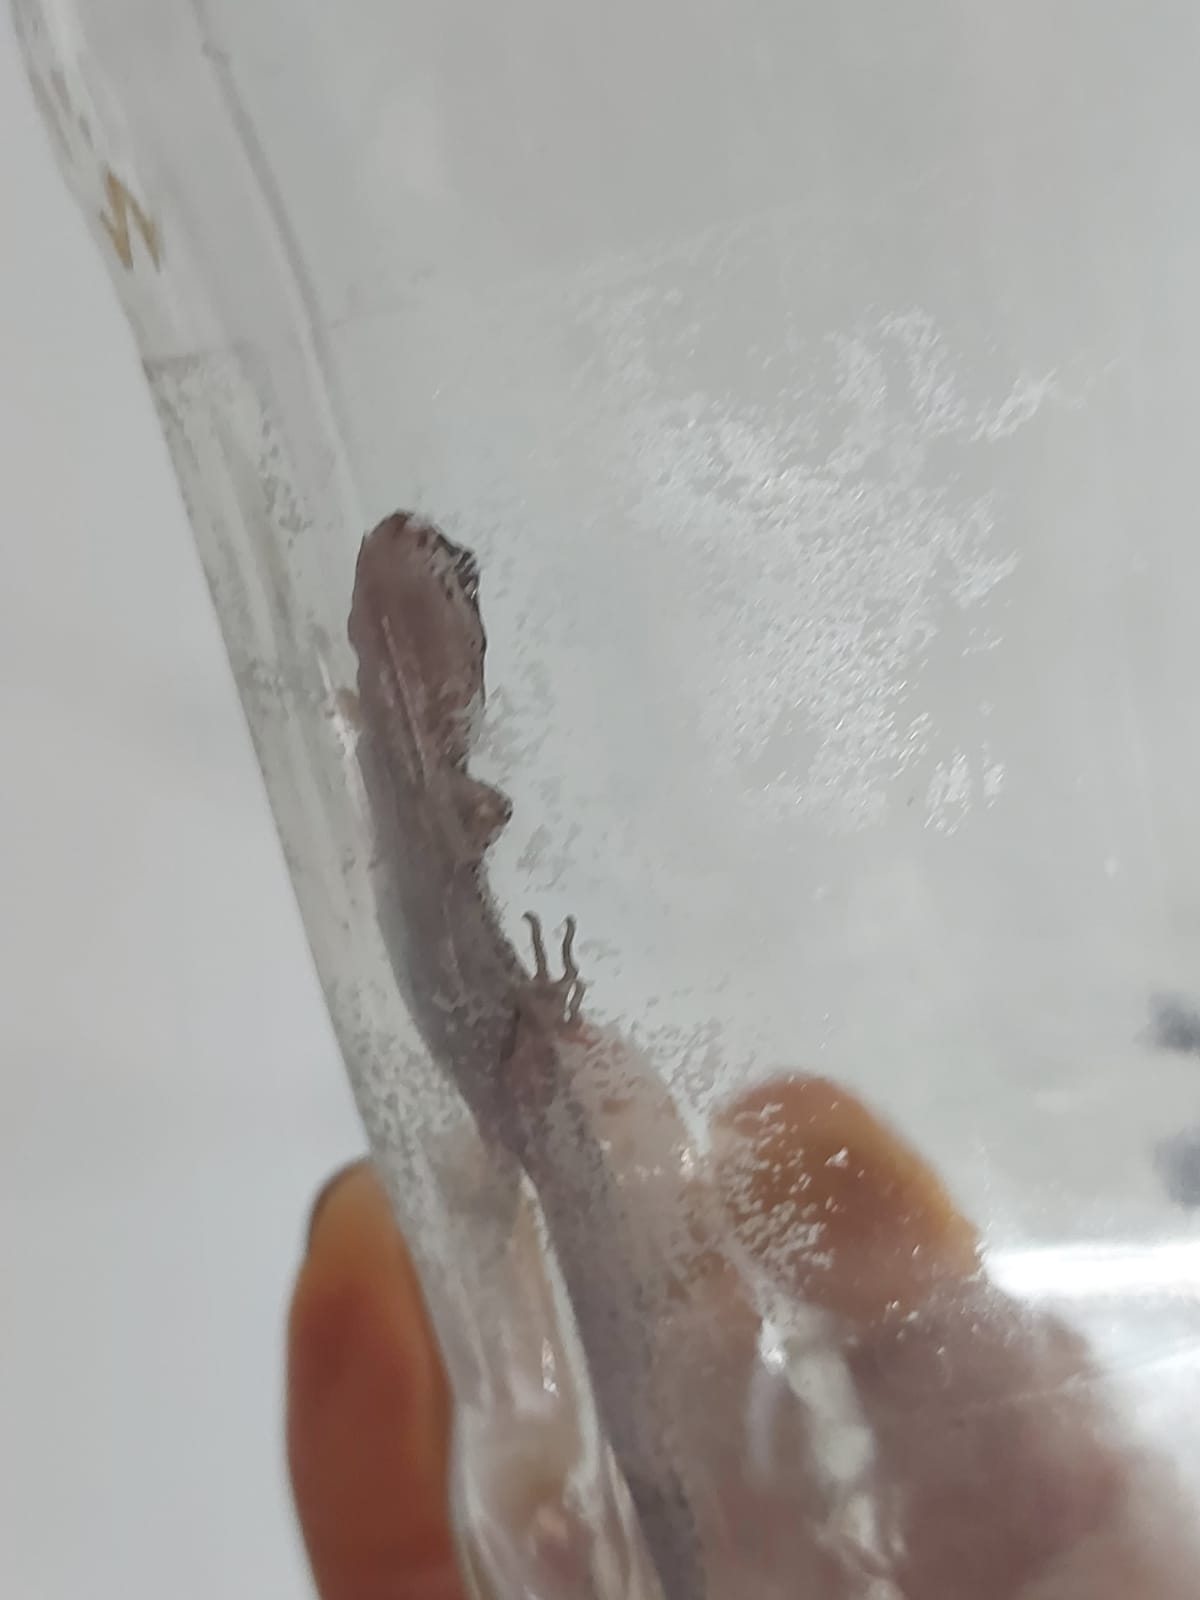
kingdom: Animalia
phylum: Chordata
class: Squamata
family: Phyllodactylidae
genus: Homonota
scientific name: Homonota borellii
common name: Borelli's marked gecko
